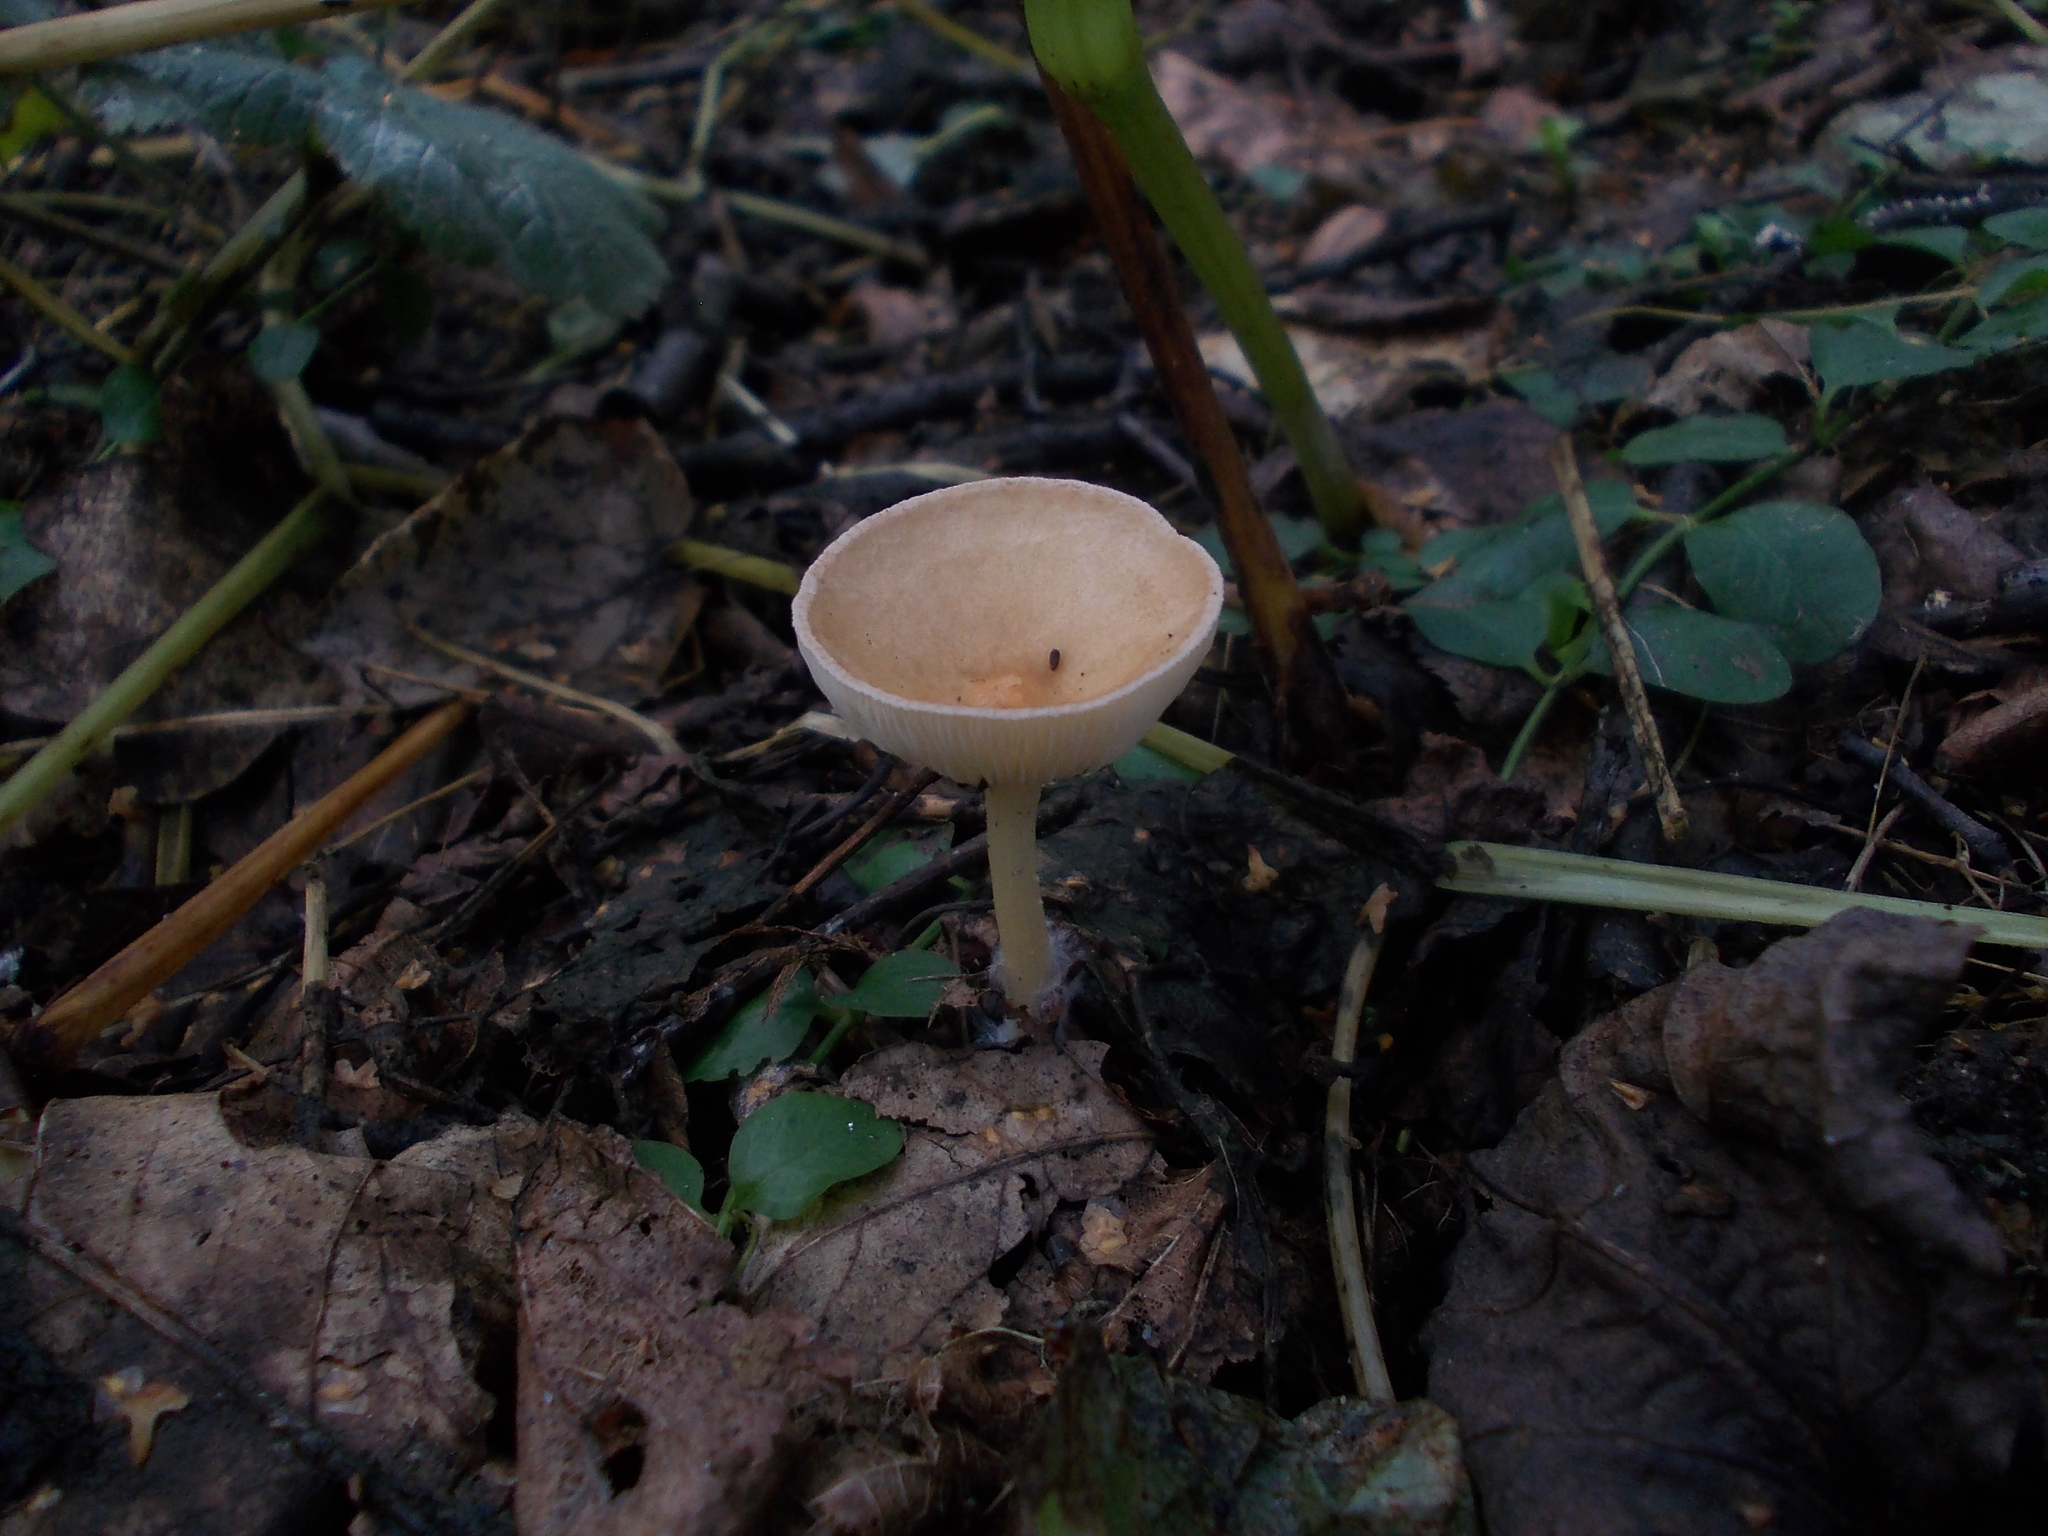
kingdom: Fungi
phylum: Basidiomycota
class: Agaricomycetes
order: Agaricales
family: Tricholomataceae
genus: Infundibulicybe
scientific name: Infundibulicybe gibba
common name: Common funnel
